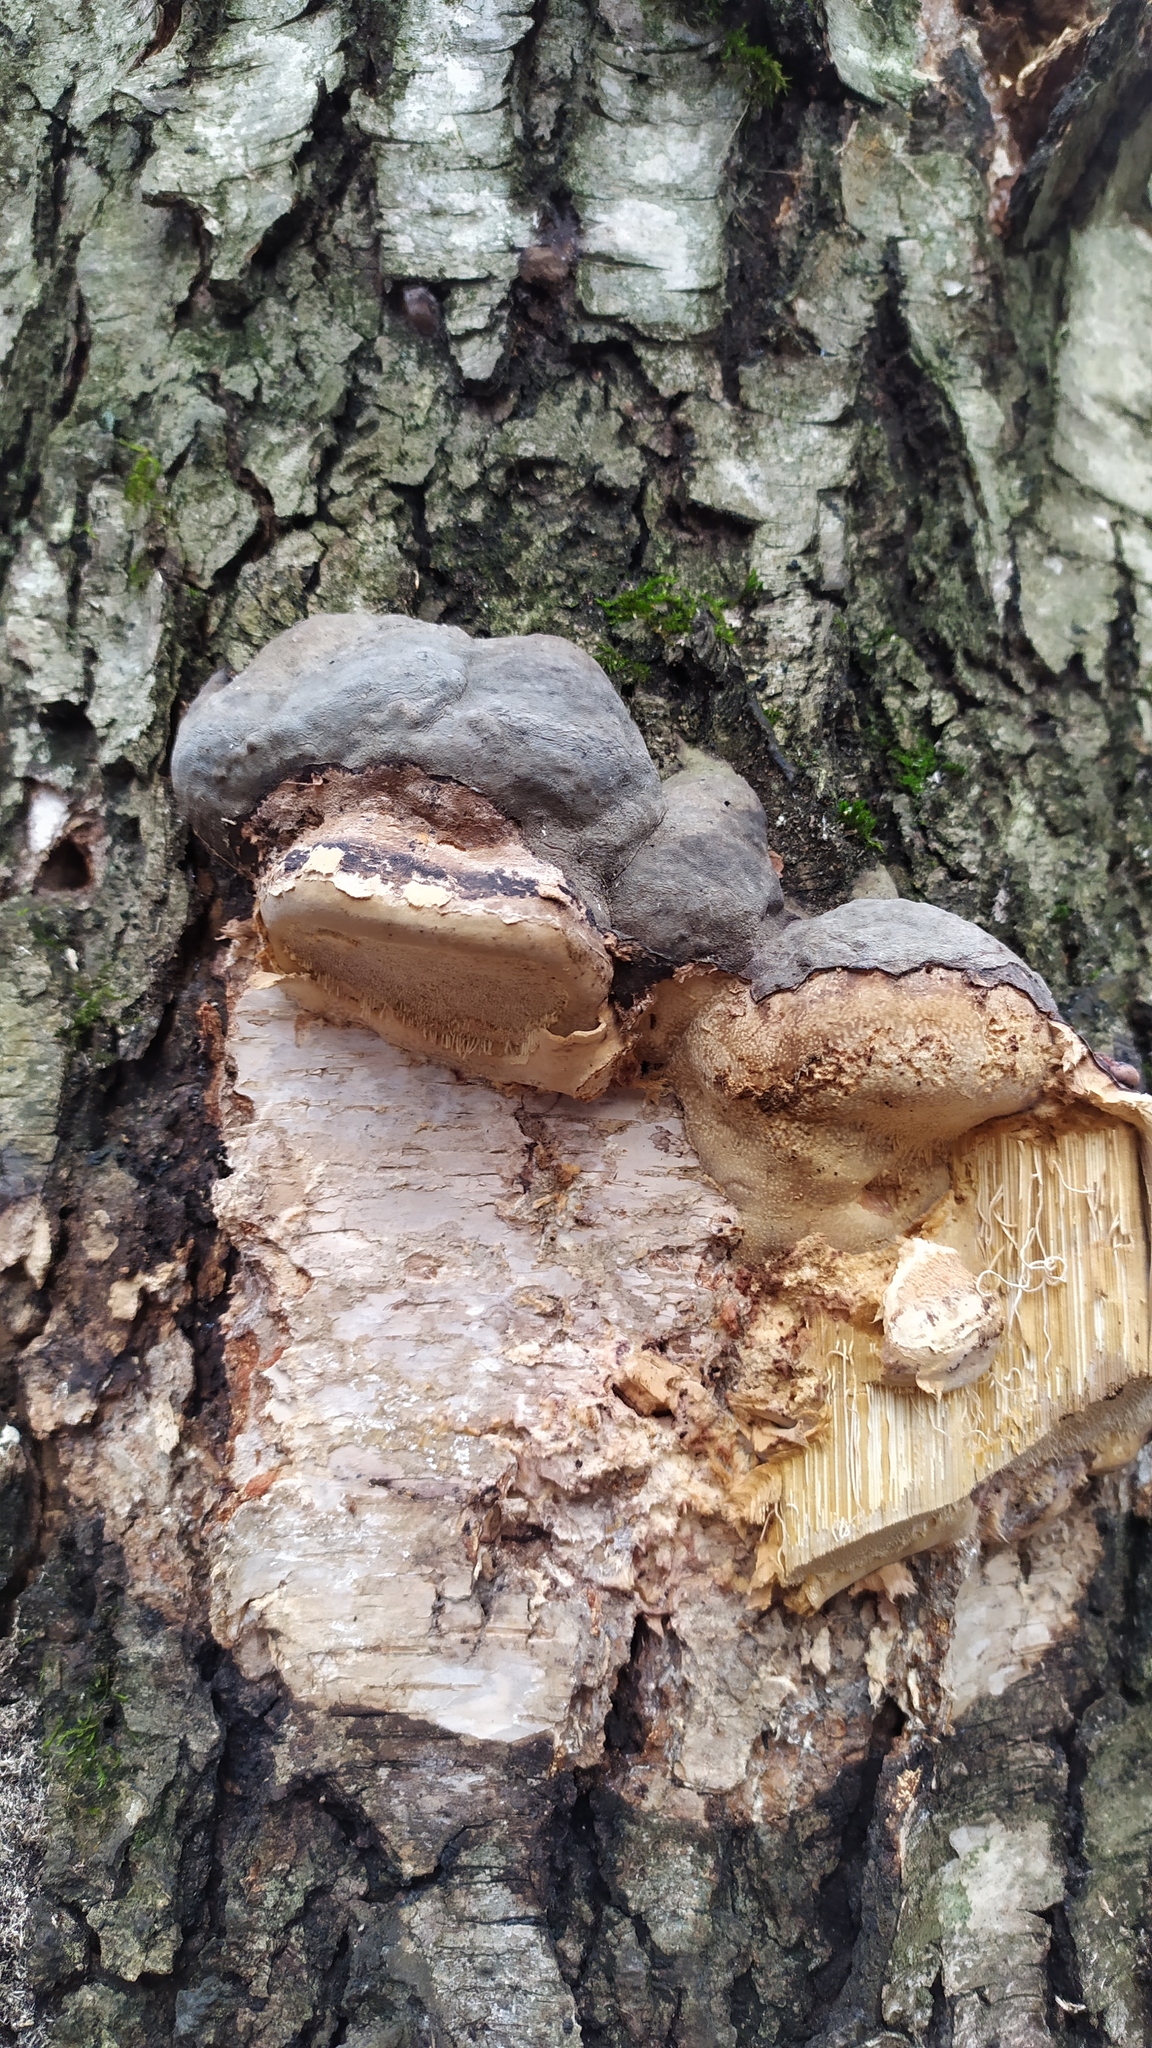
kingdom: Fungi
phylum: Basidiomycota
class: Agaricomycetes
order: Polyporales
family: Polyporaceae
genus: Fomes
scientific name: Fomes fomentarius
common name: Hoof fungus
